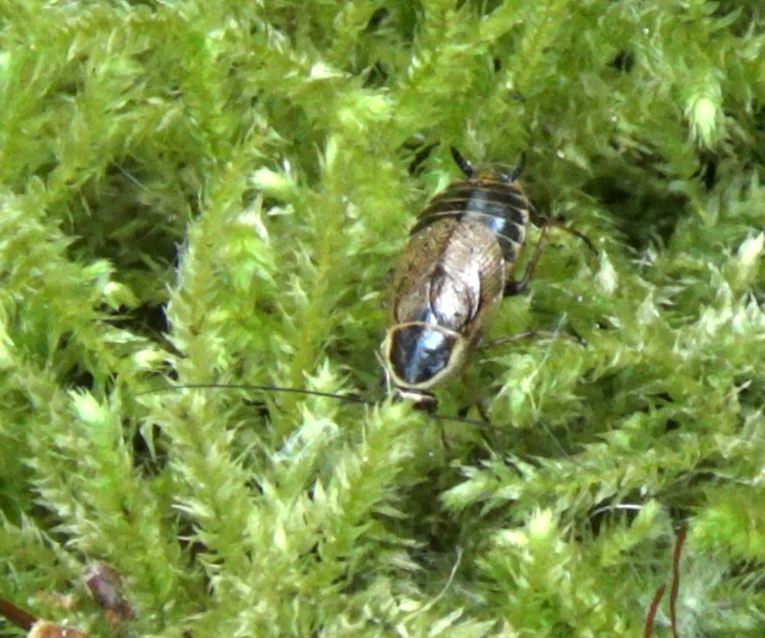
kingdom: Animalia
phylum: Arthropoda
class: Insecta
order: Blattodea
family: Ectobiidae
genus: Ectobius
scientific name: Ectobius sylvestris
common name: Forest cockroach
